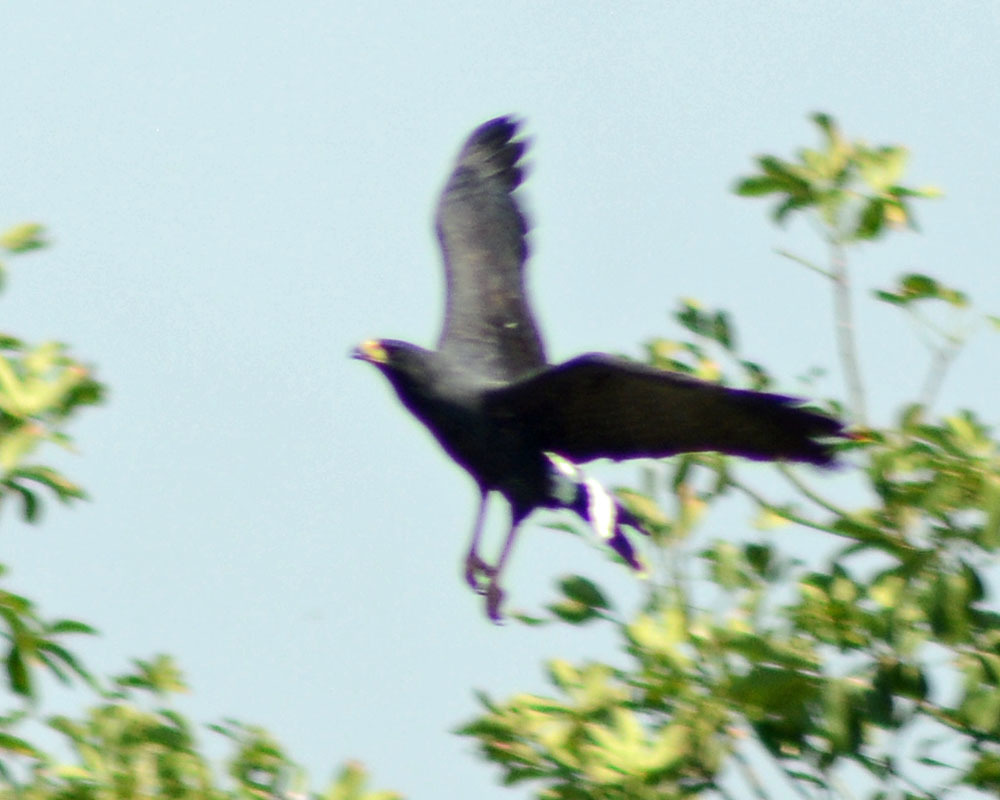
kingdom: Animalia
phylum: Chordata
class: Aves
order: Accipitriformes
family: Accipitridae
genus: Buteogallus
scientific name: Buteogallus anthracinus
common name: Common black hawk
